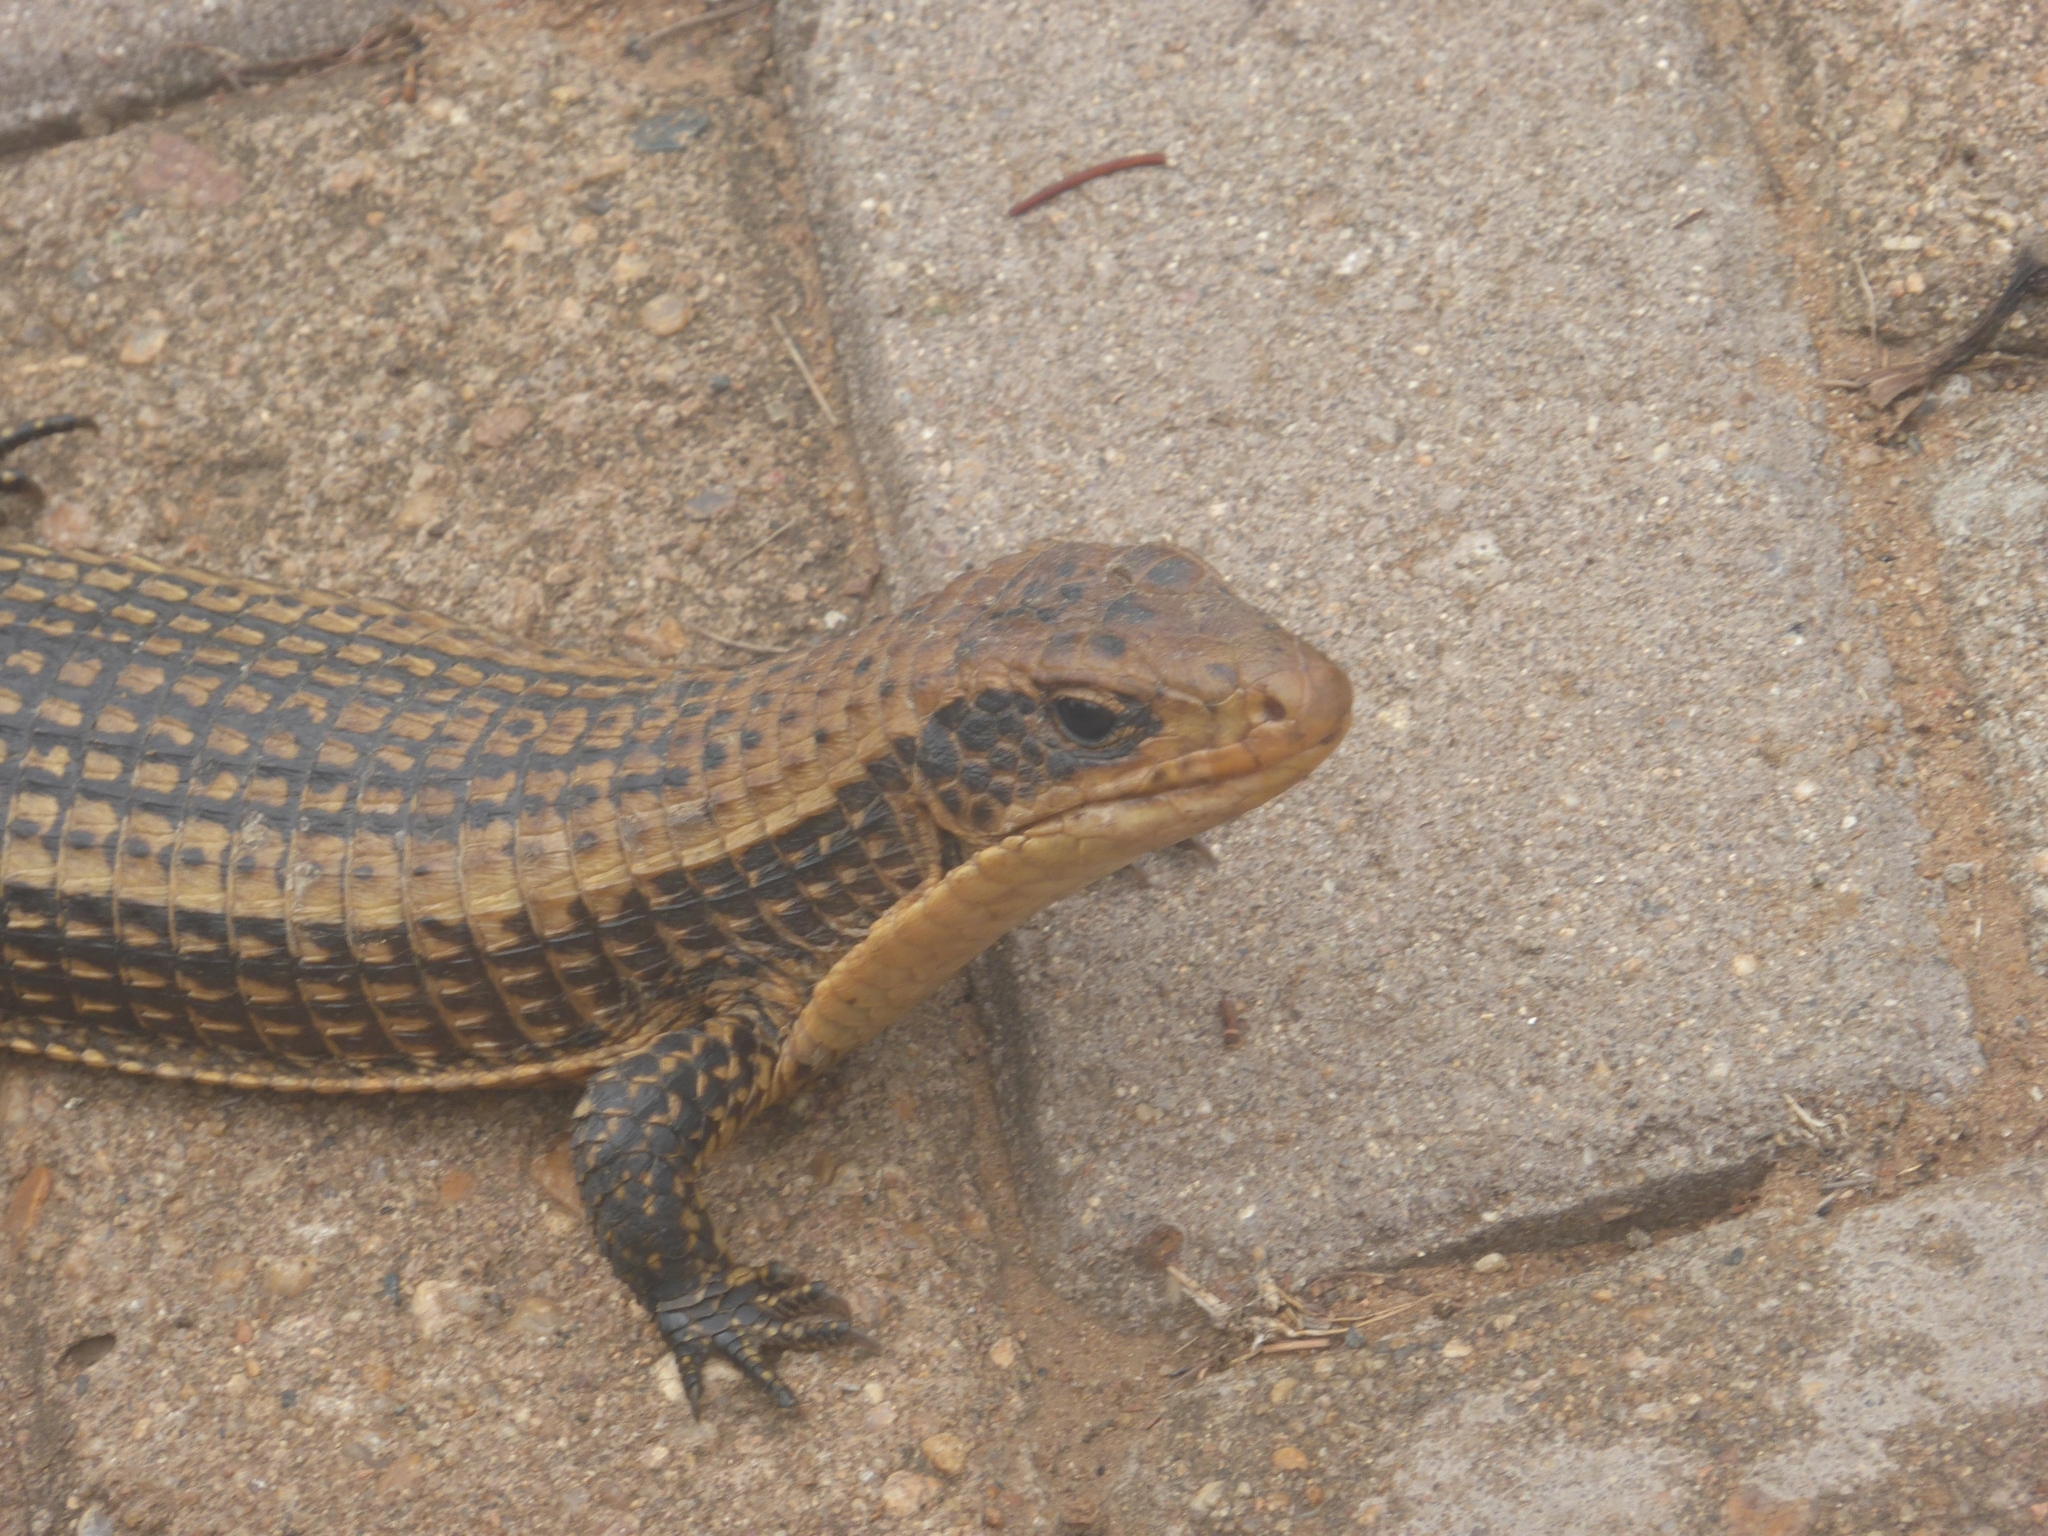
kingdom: Animalia
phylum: Chordata
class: Squamata
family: Gerrhosauridae
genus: Broadleysaurus
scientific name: Broadleysaurus major
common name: Rough-scaled plated lizard
